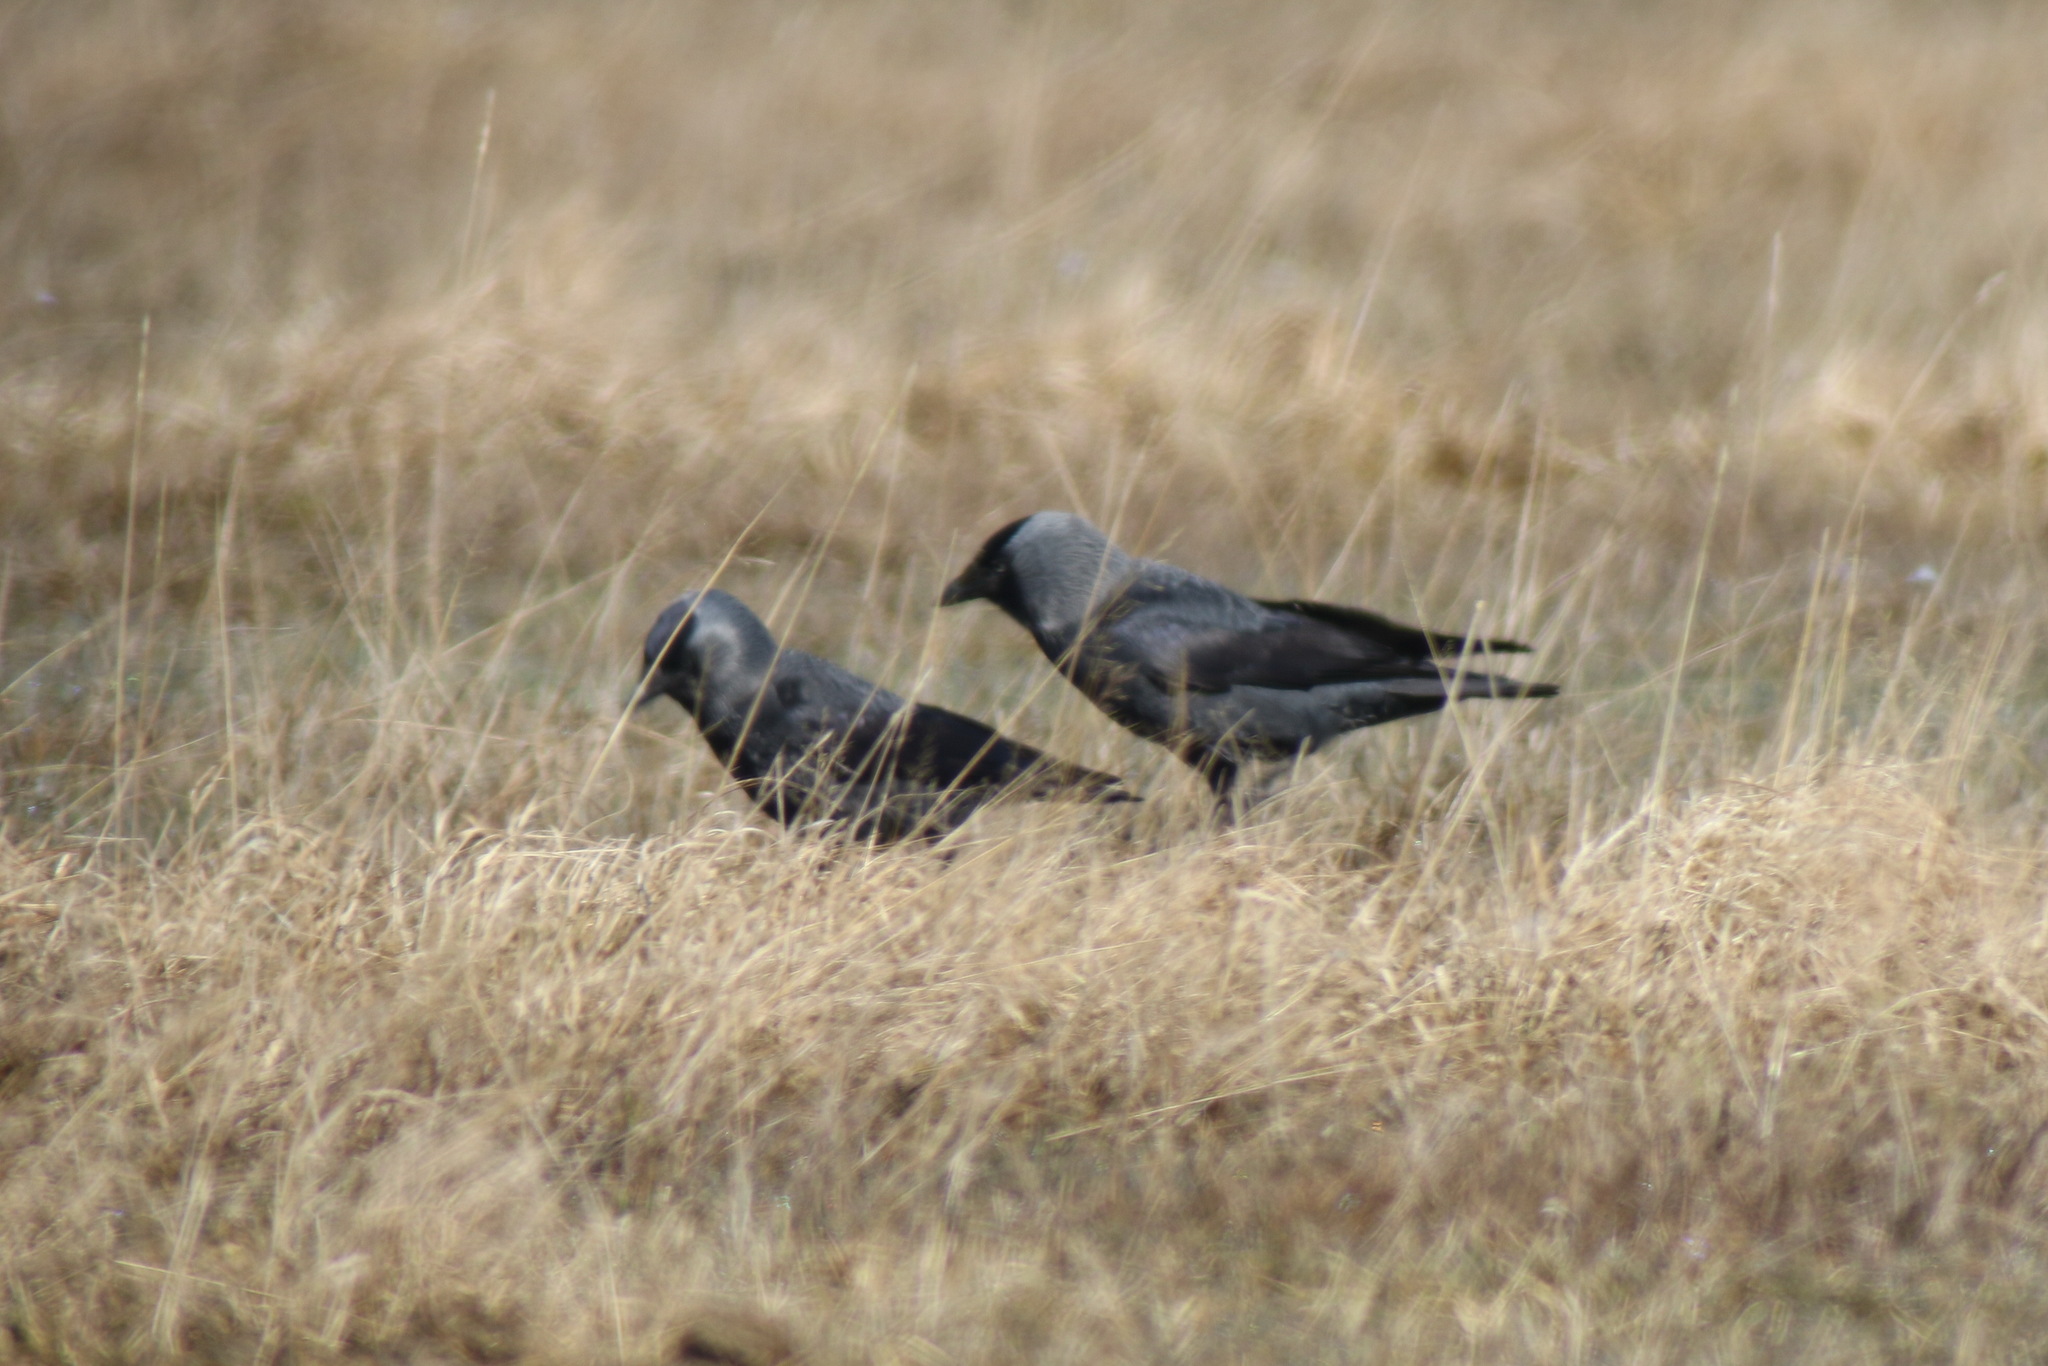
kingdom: Animalia
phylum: Chordata
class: Aves
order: Passeriformes
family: Corvidae
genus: Coloeus
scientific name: Coloeus monedula
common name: Western jackdaw
